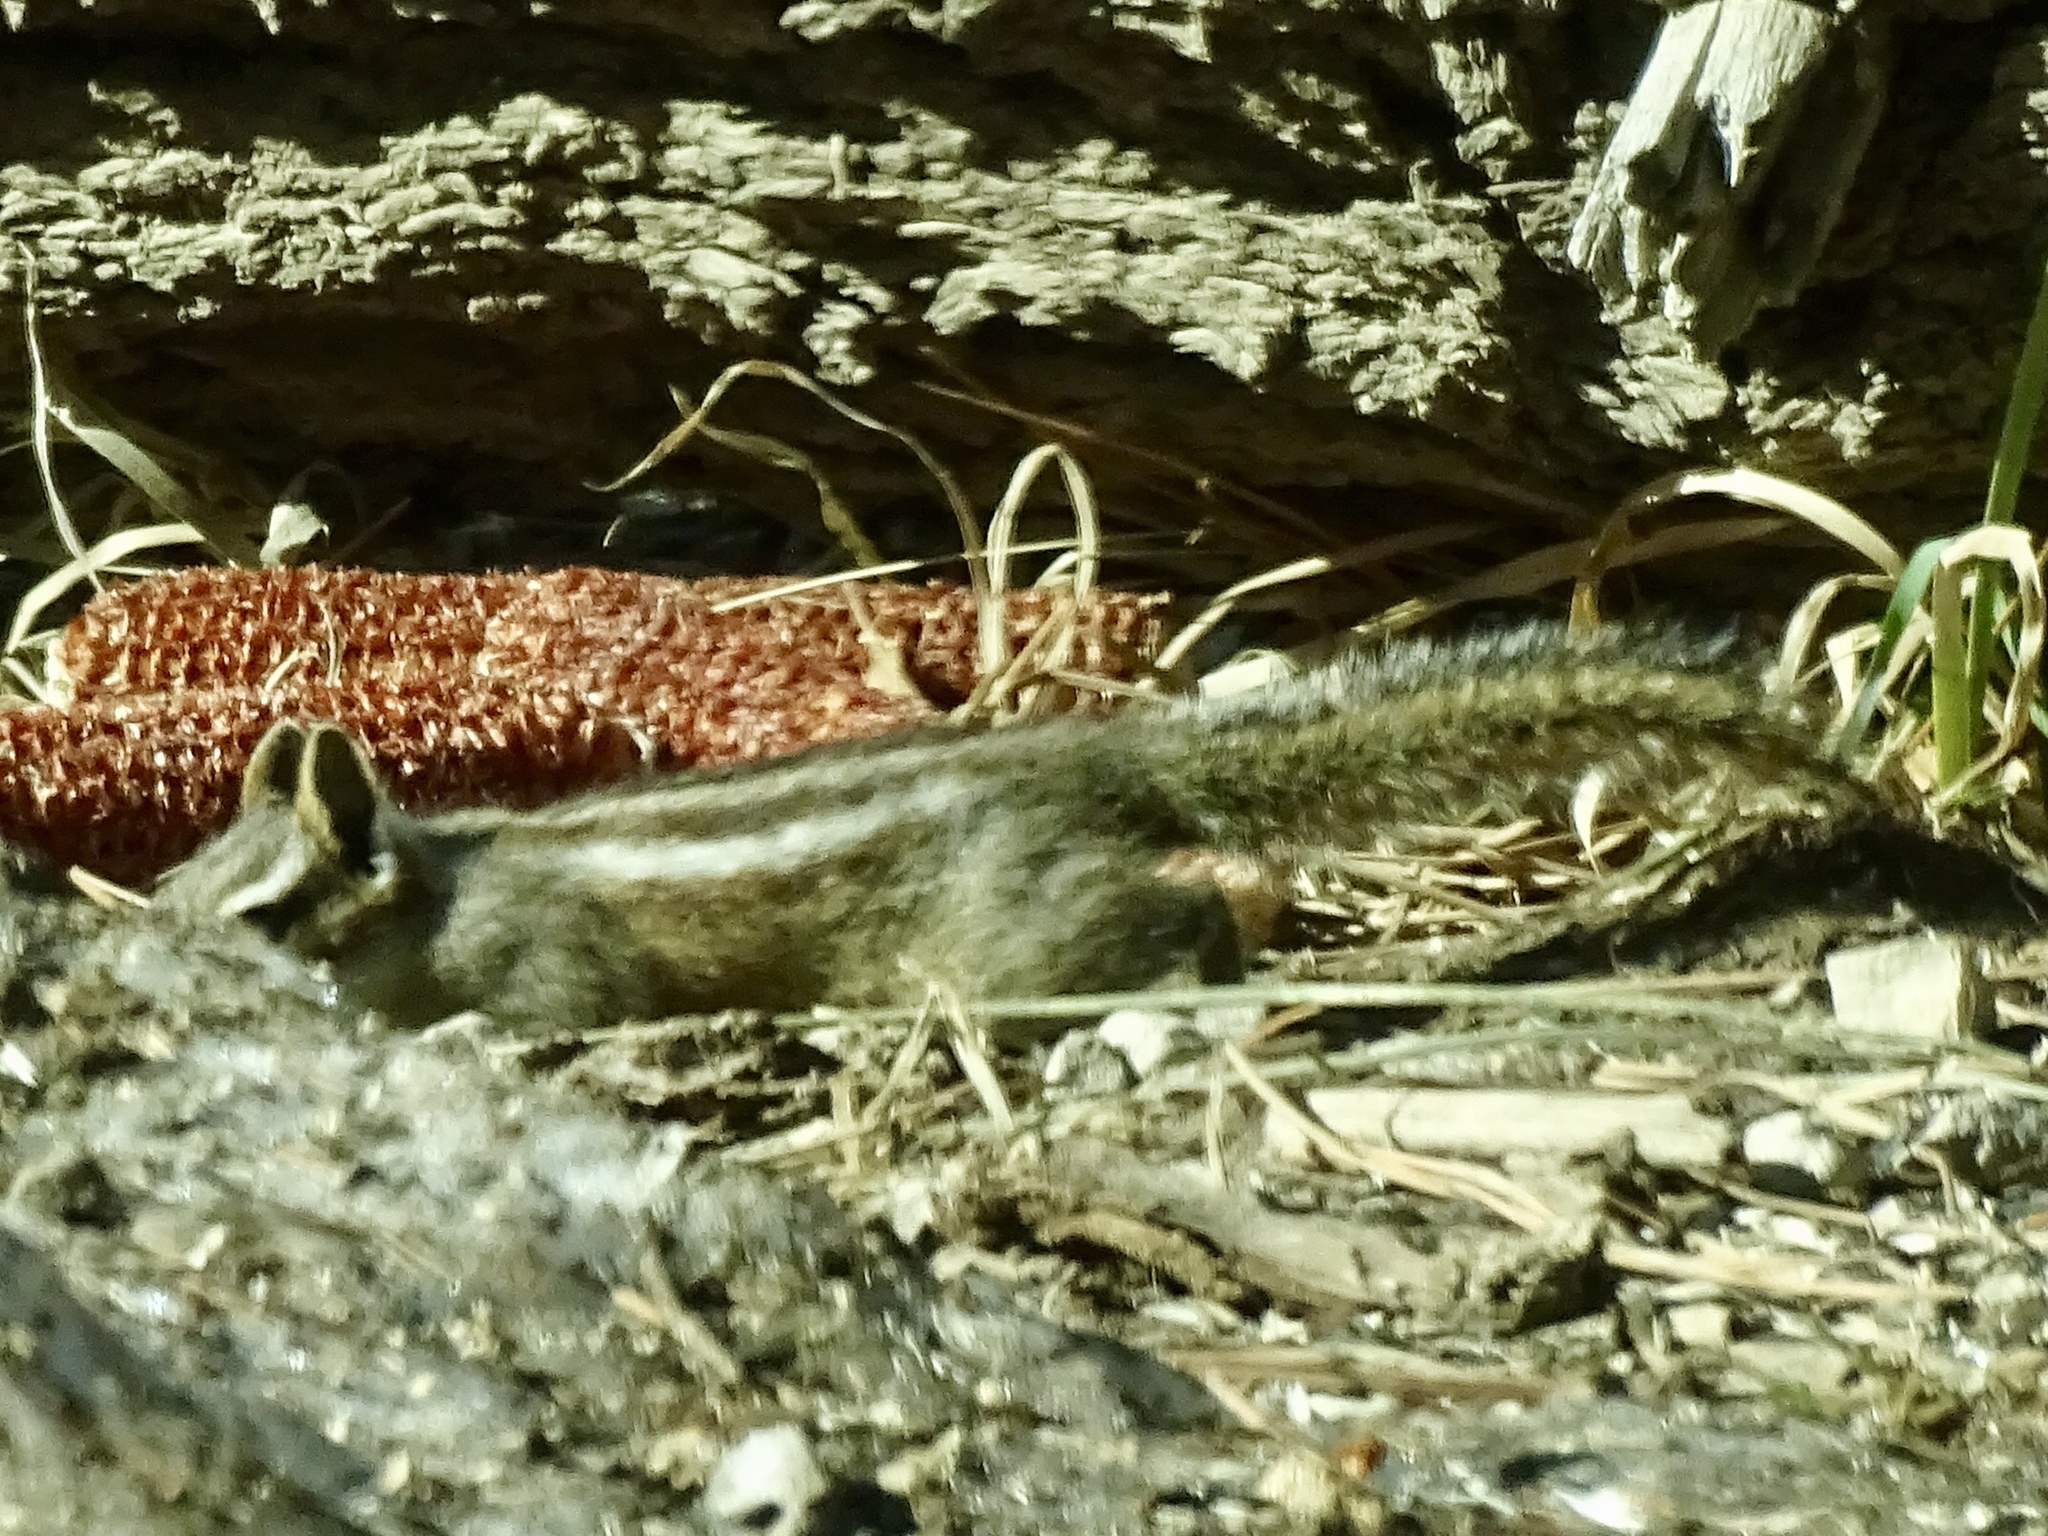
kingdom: Animalia
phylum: Chordata
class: Mammalia
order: Rodentia
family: Sciuridae
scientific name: Sciuridae
